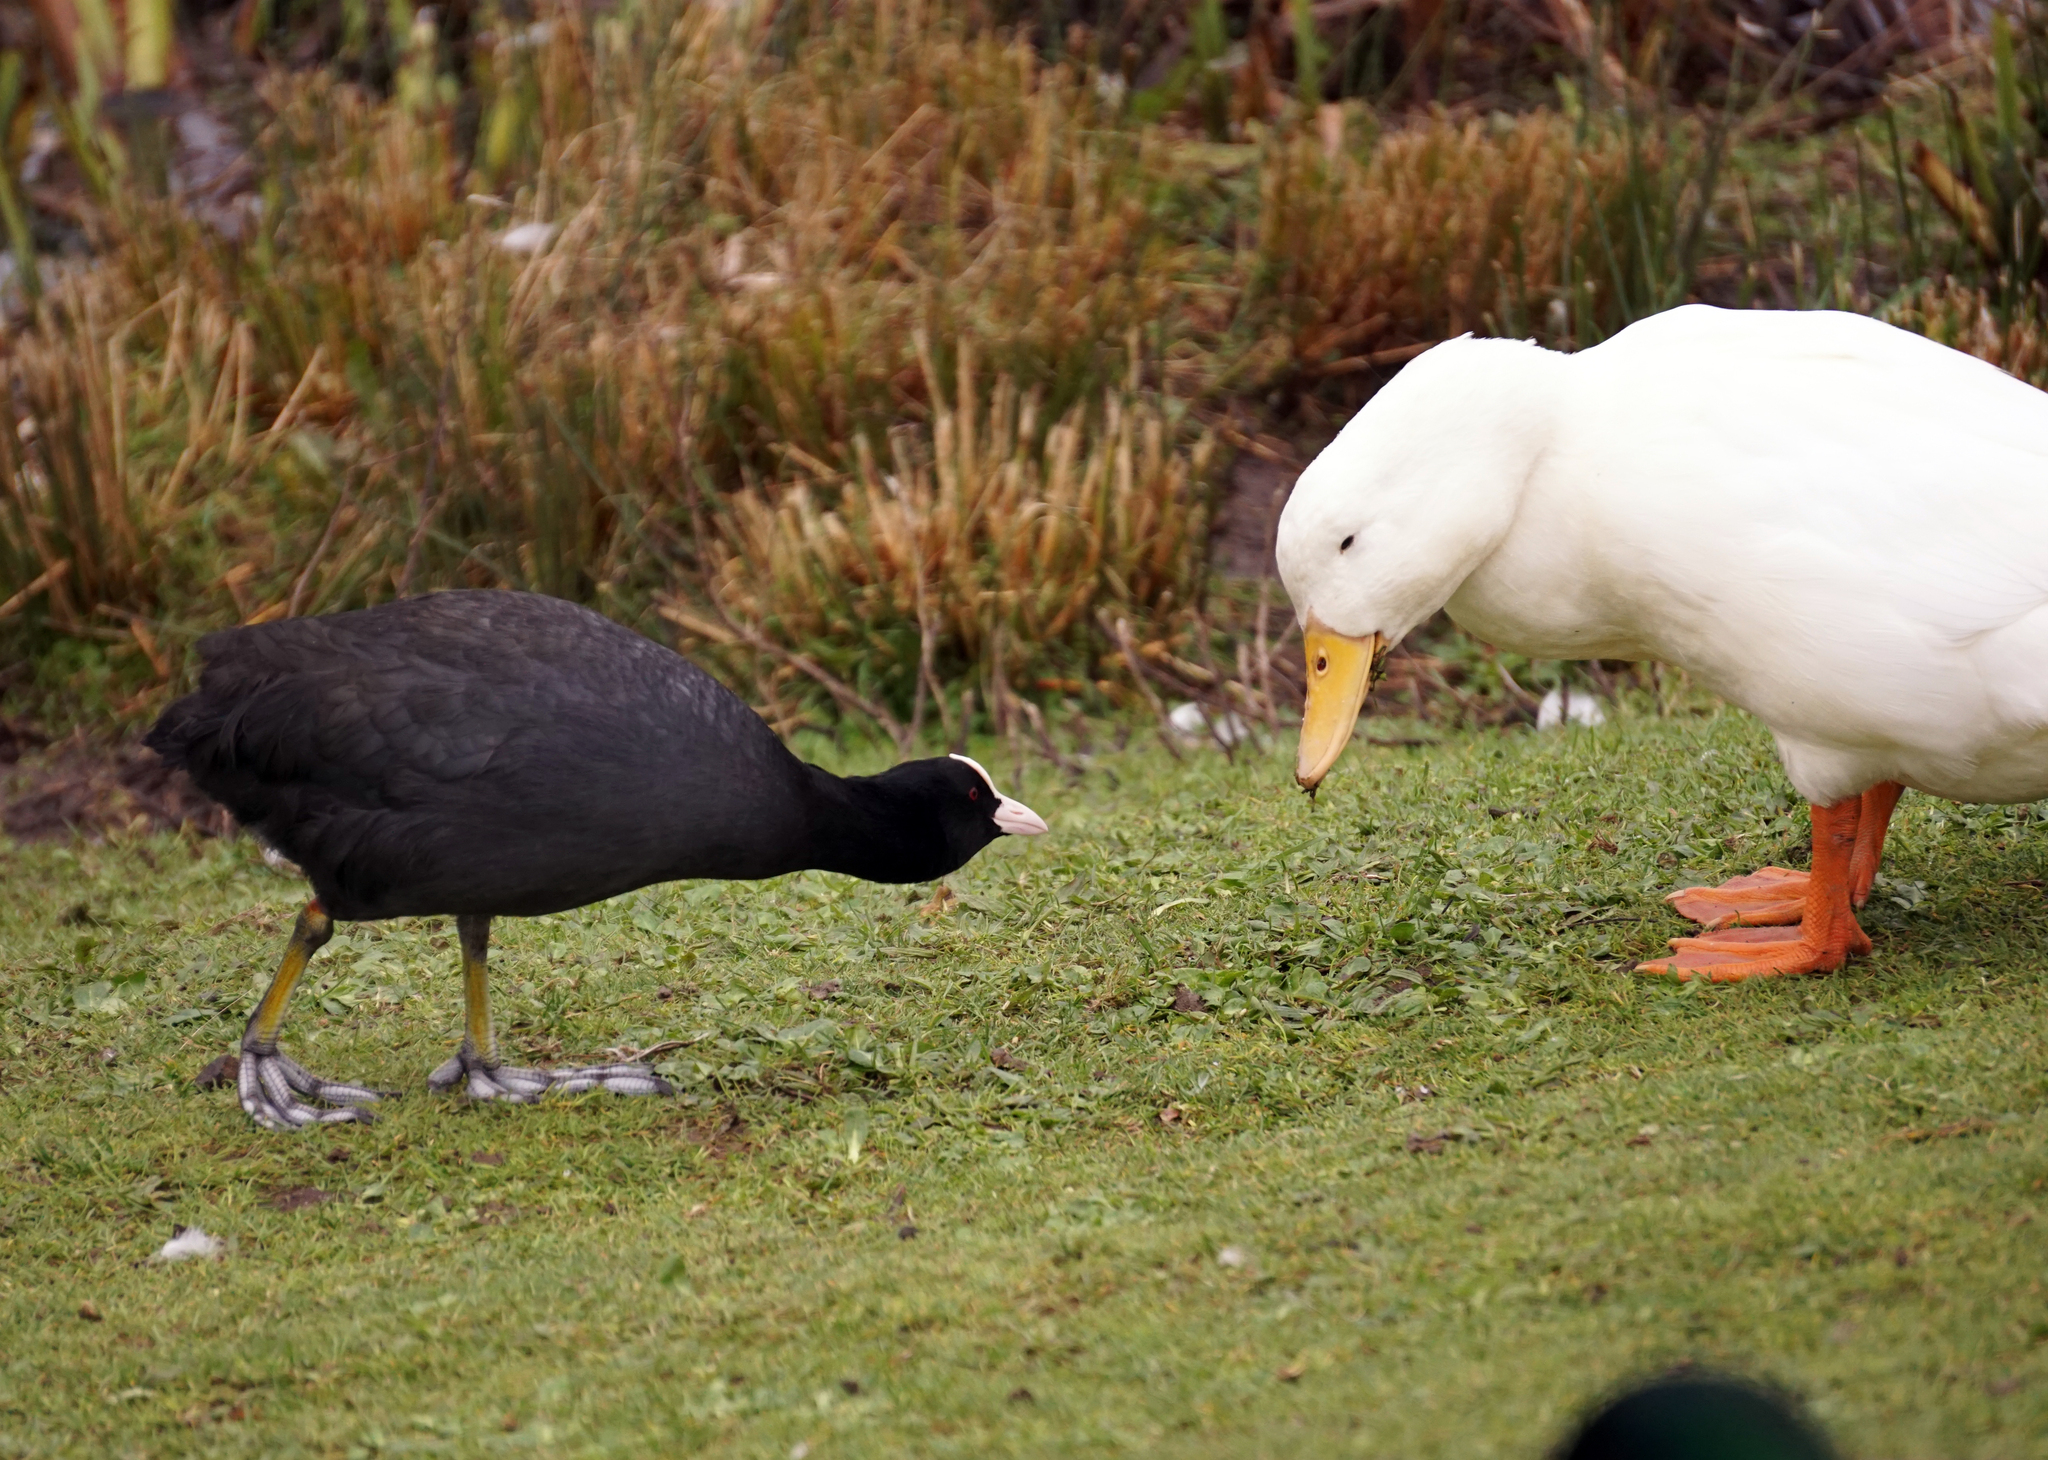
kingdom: Animalia
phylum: Chordata
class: Aves
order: Gruiformes
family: Rallidae
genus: Fulica
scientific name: Fulica atra
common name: Eurasian coot
